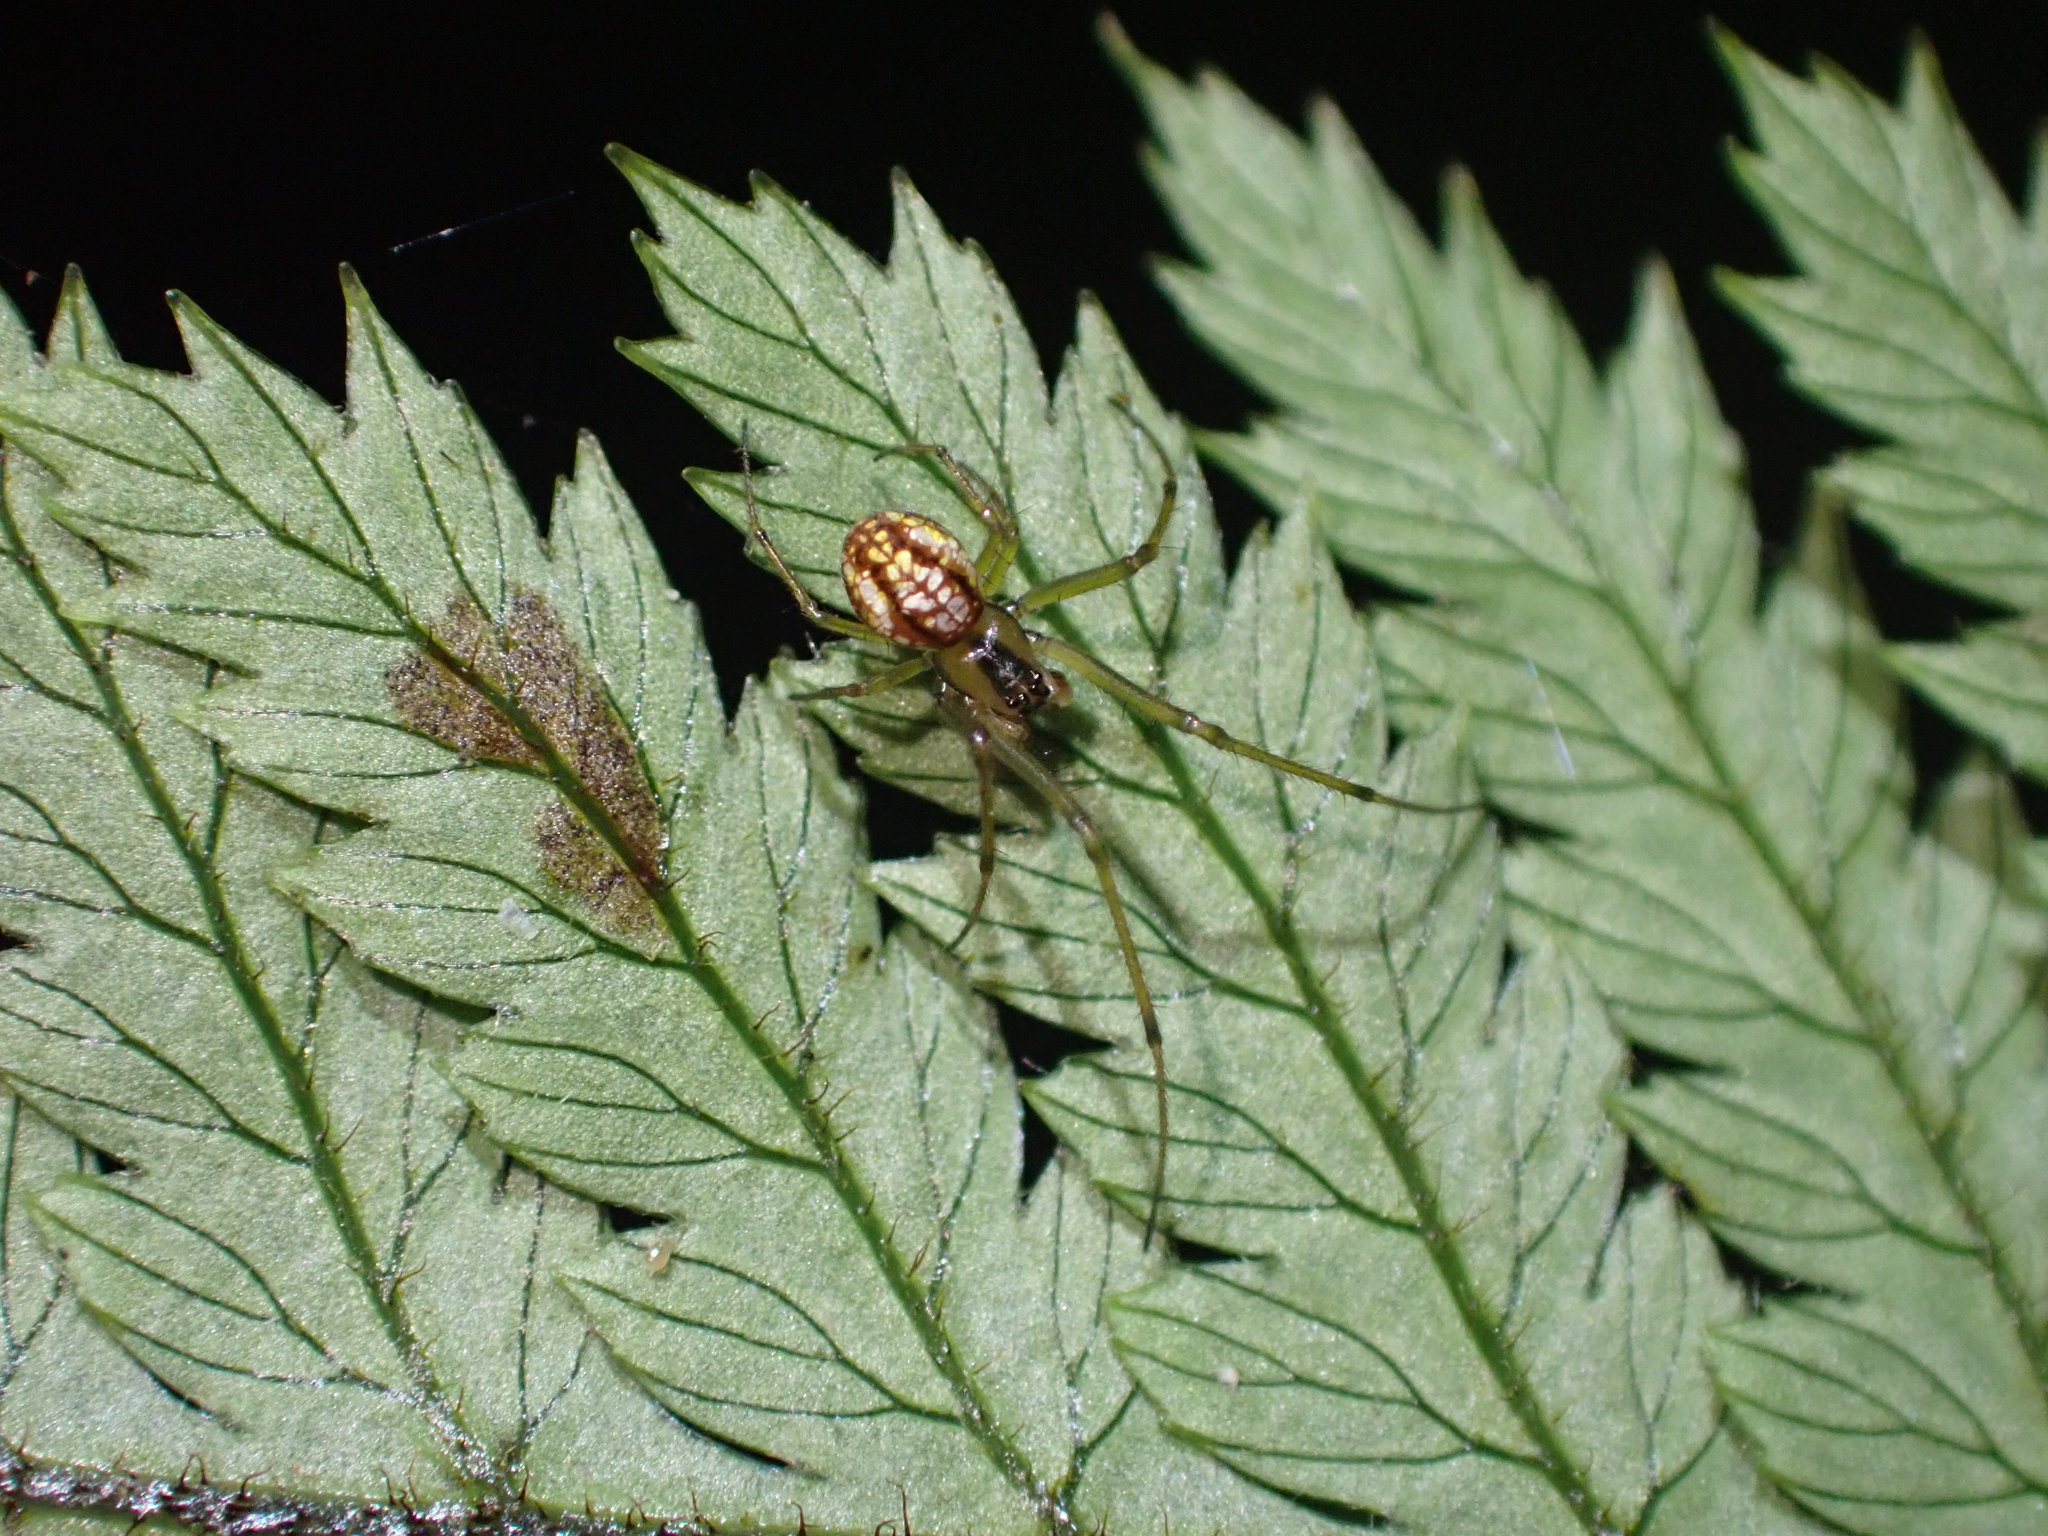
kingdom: Animalia
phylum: Arthropoda
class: Arachnida
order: Araneae
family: Tetragnathidae
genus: Nanometa
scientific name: Nanometa purpurapunctata
